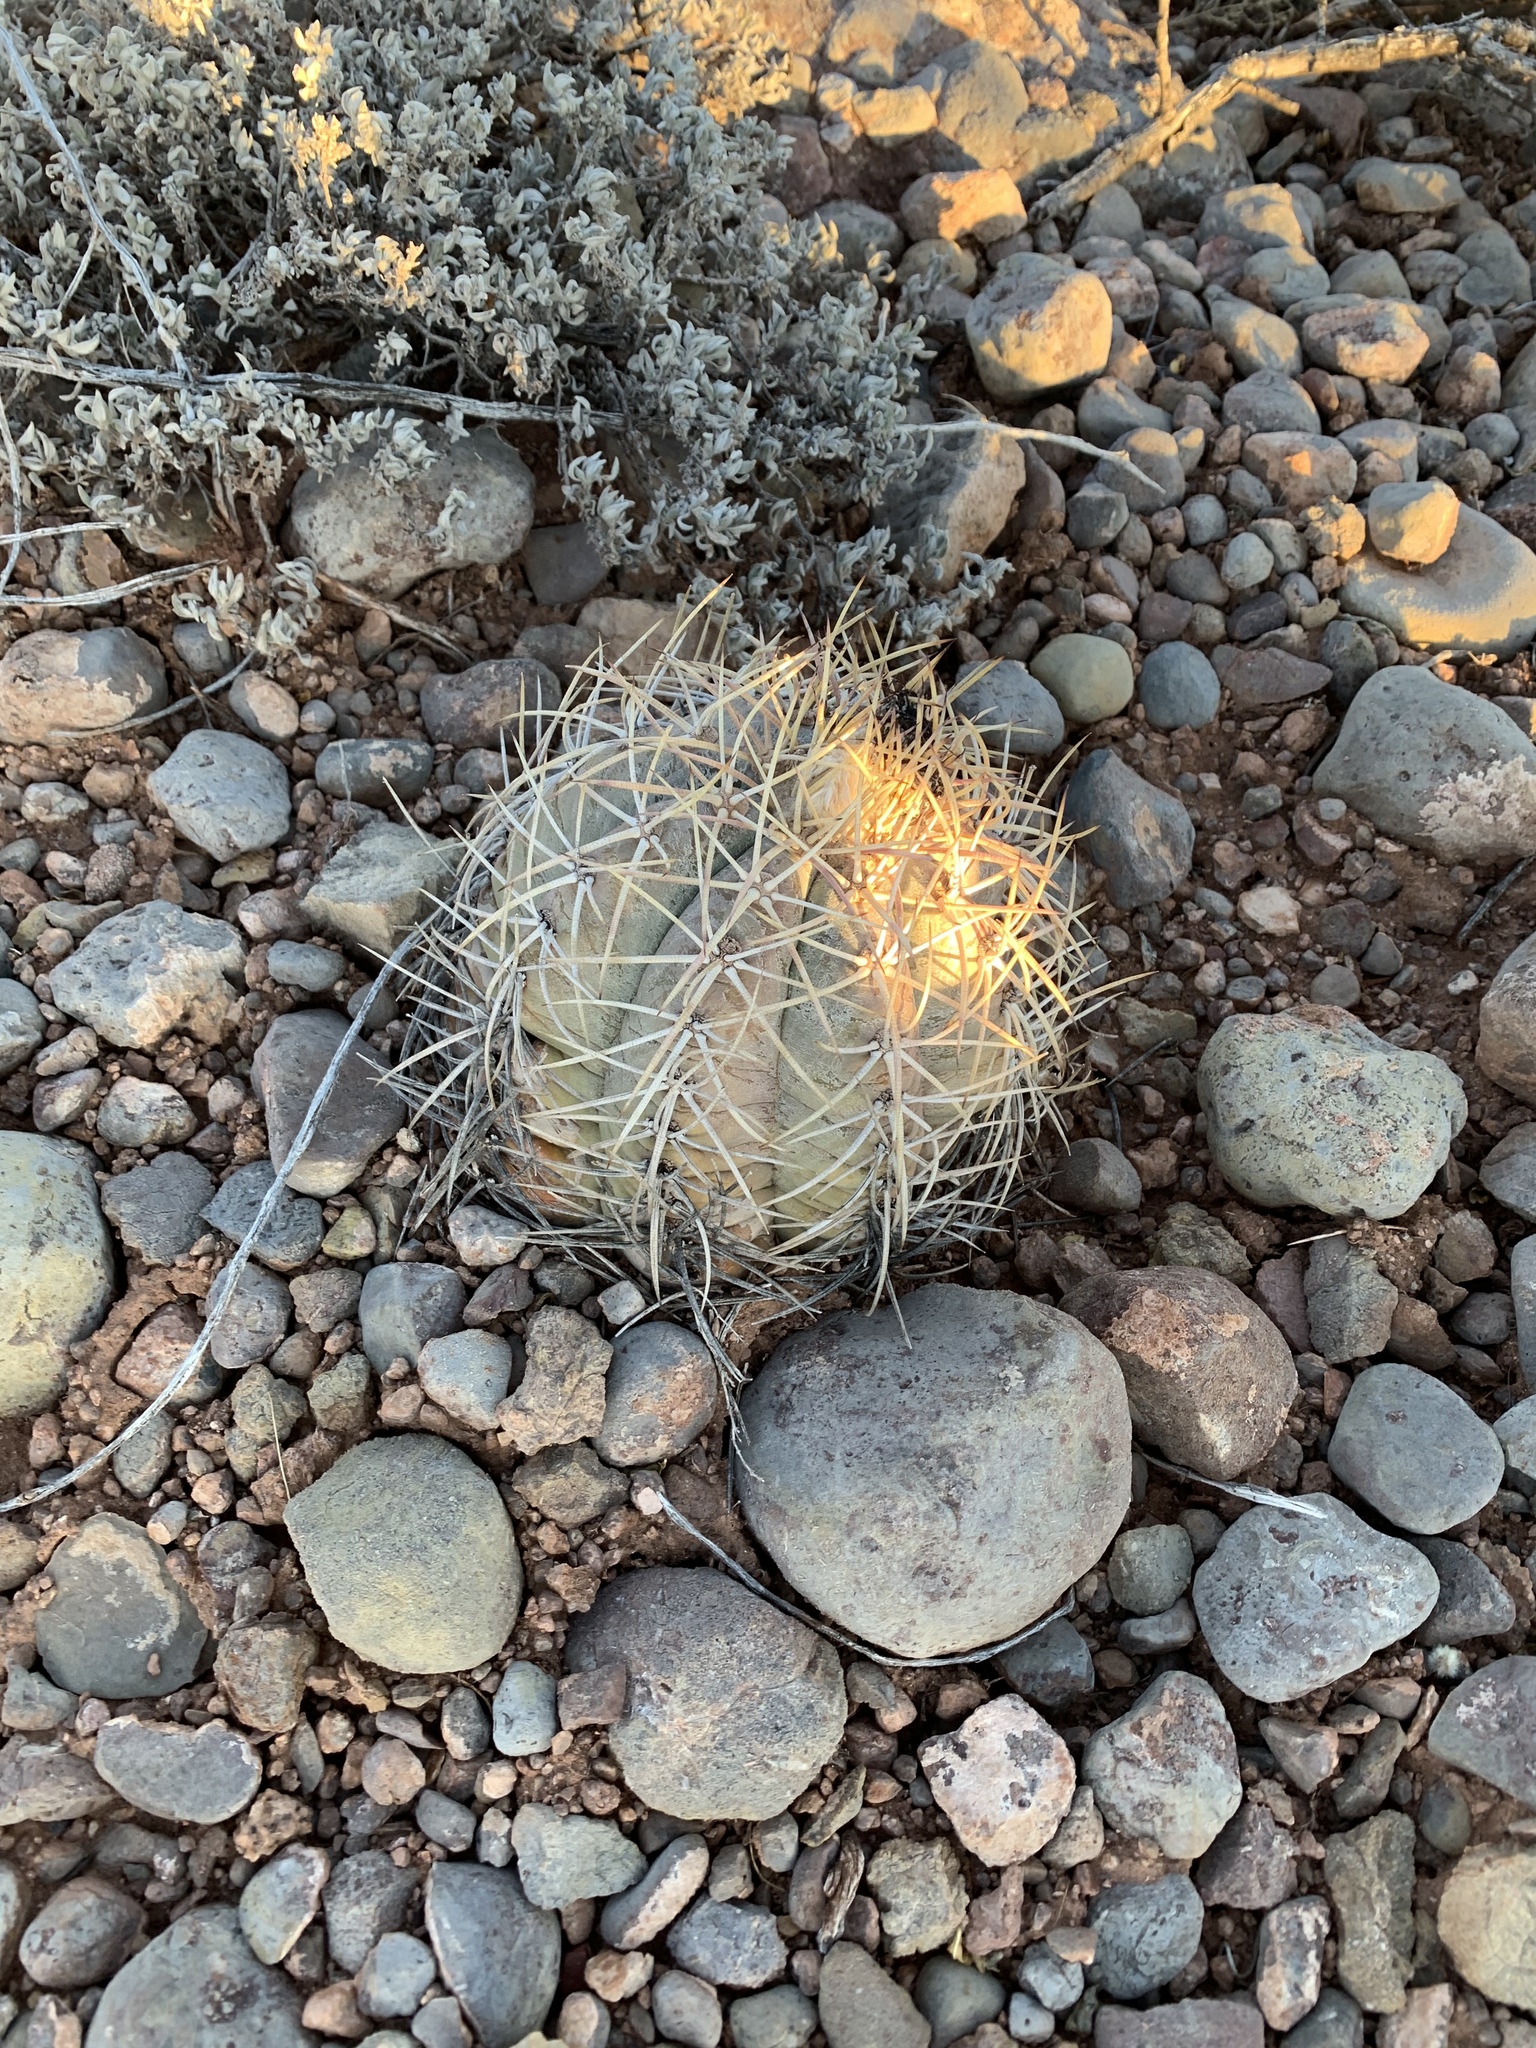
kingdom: Plantae
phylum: Tracheophyta
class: Magnoliopsida
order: Caryophyllales
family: Cactaceae
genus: Echinocactus
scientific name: Echinocactus horizonthalonius
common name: Devilshead
